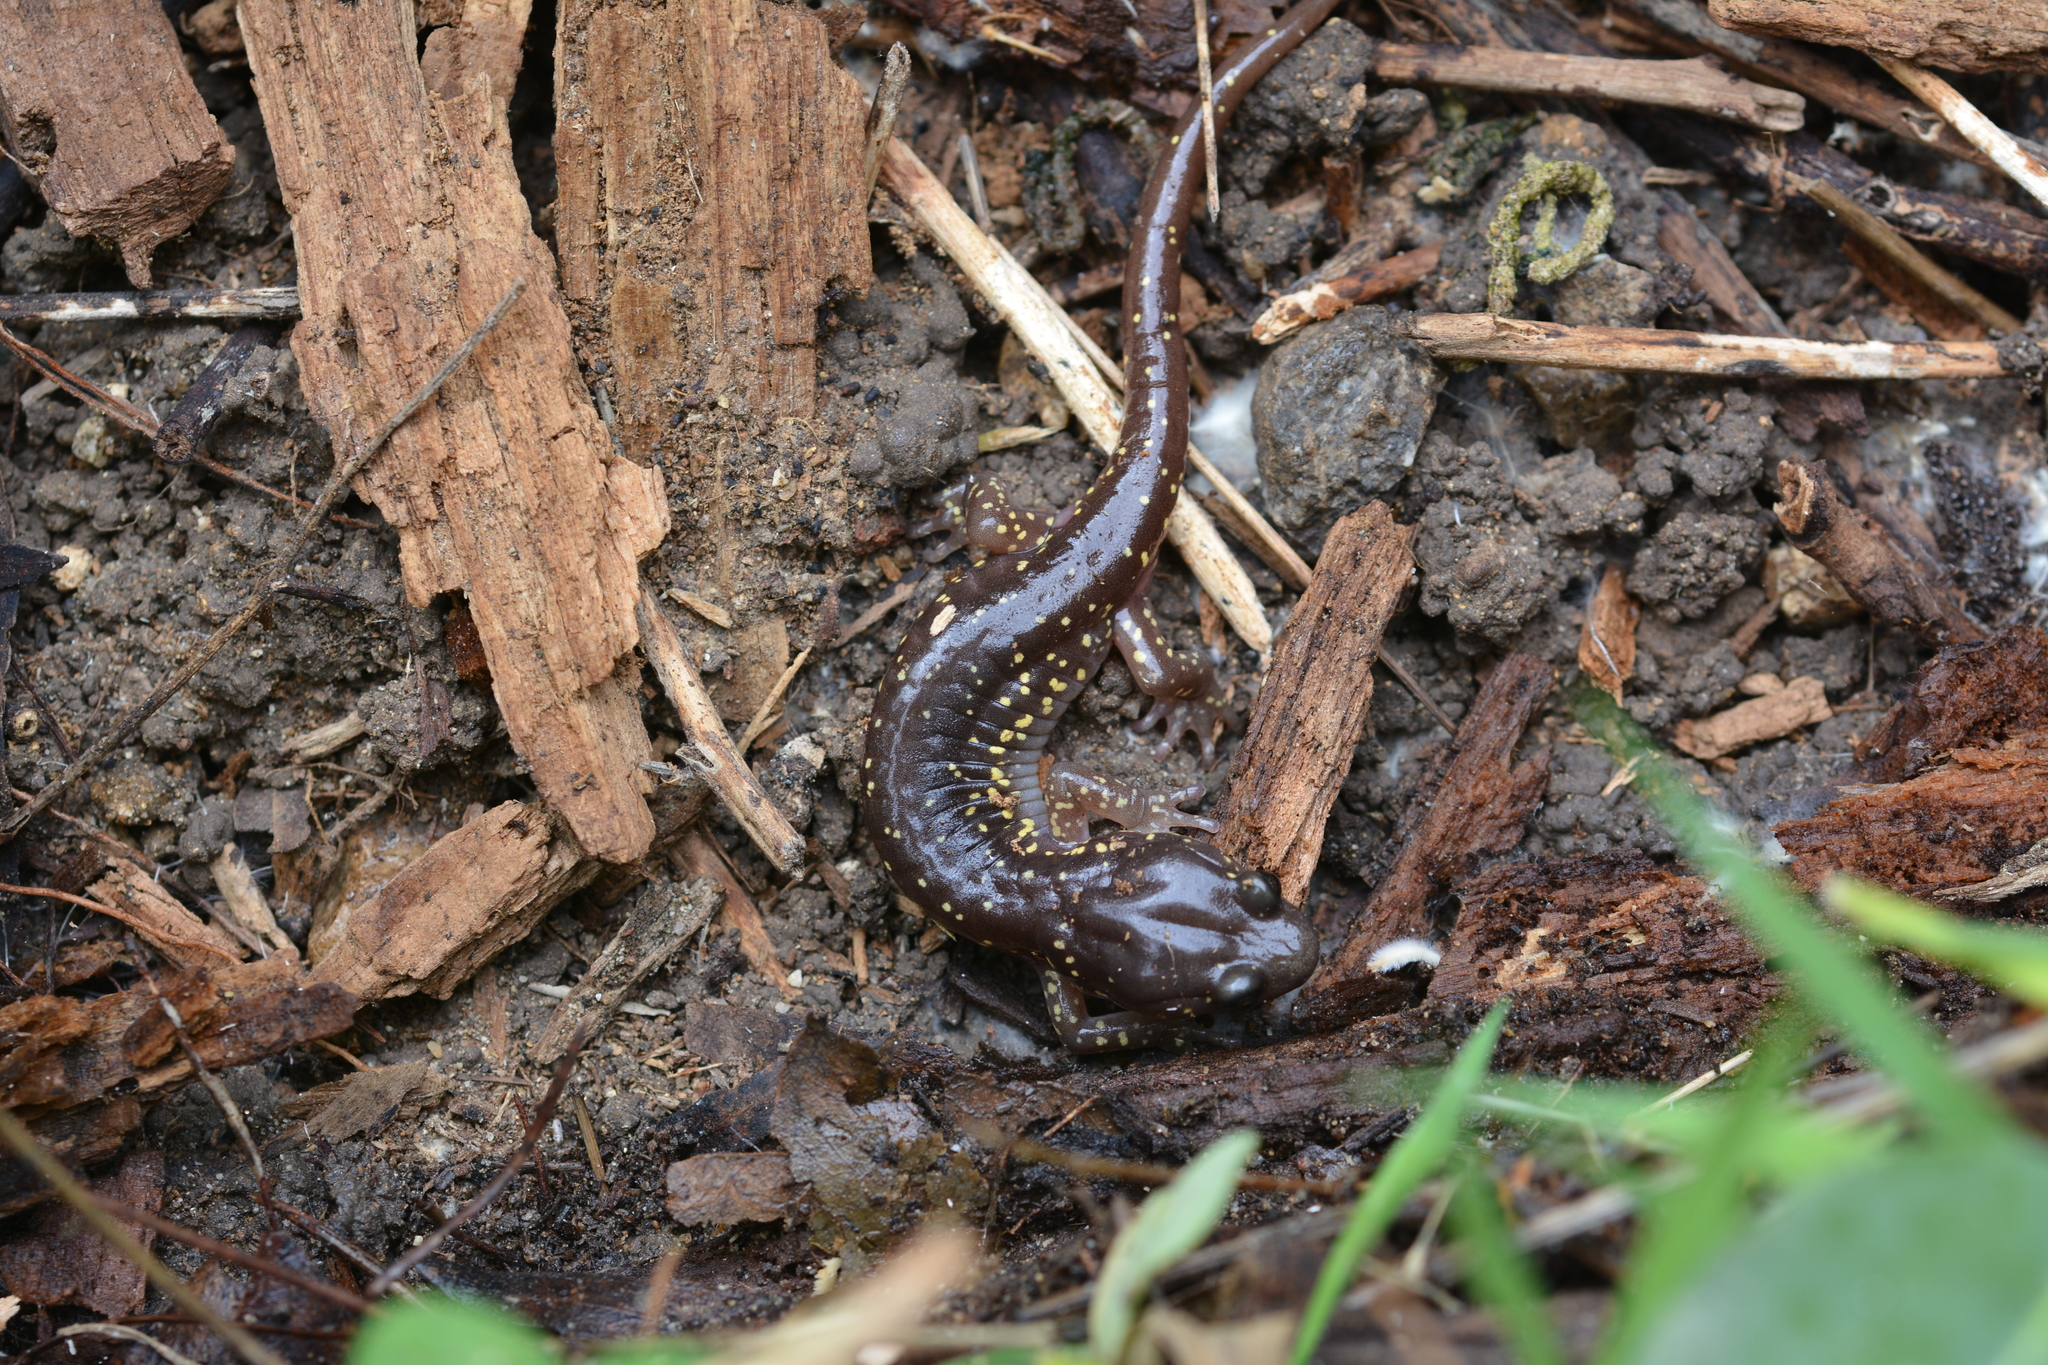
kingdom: Animalia
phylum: Chordata
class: Amphibia
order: Caudata
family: Plethodontidae
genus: Aneides
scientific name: Aneides lugubris
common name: Arboreal salamander
